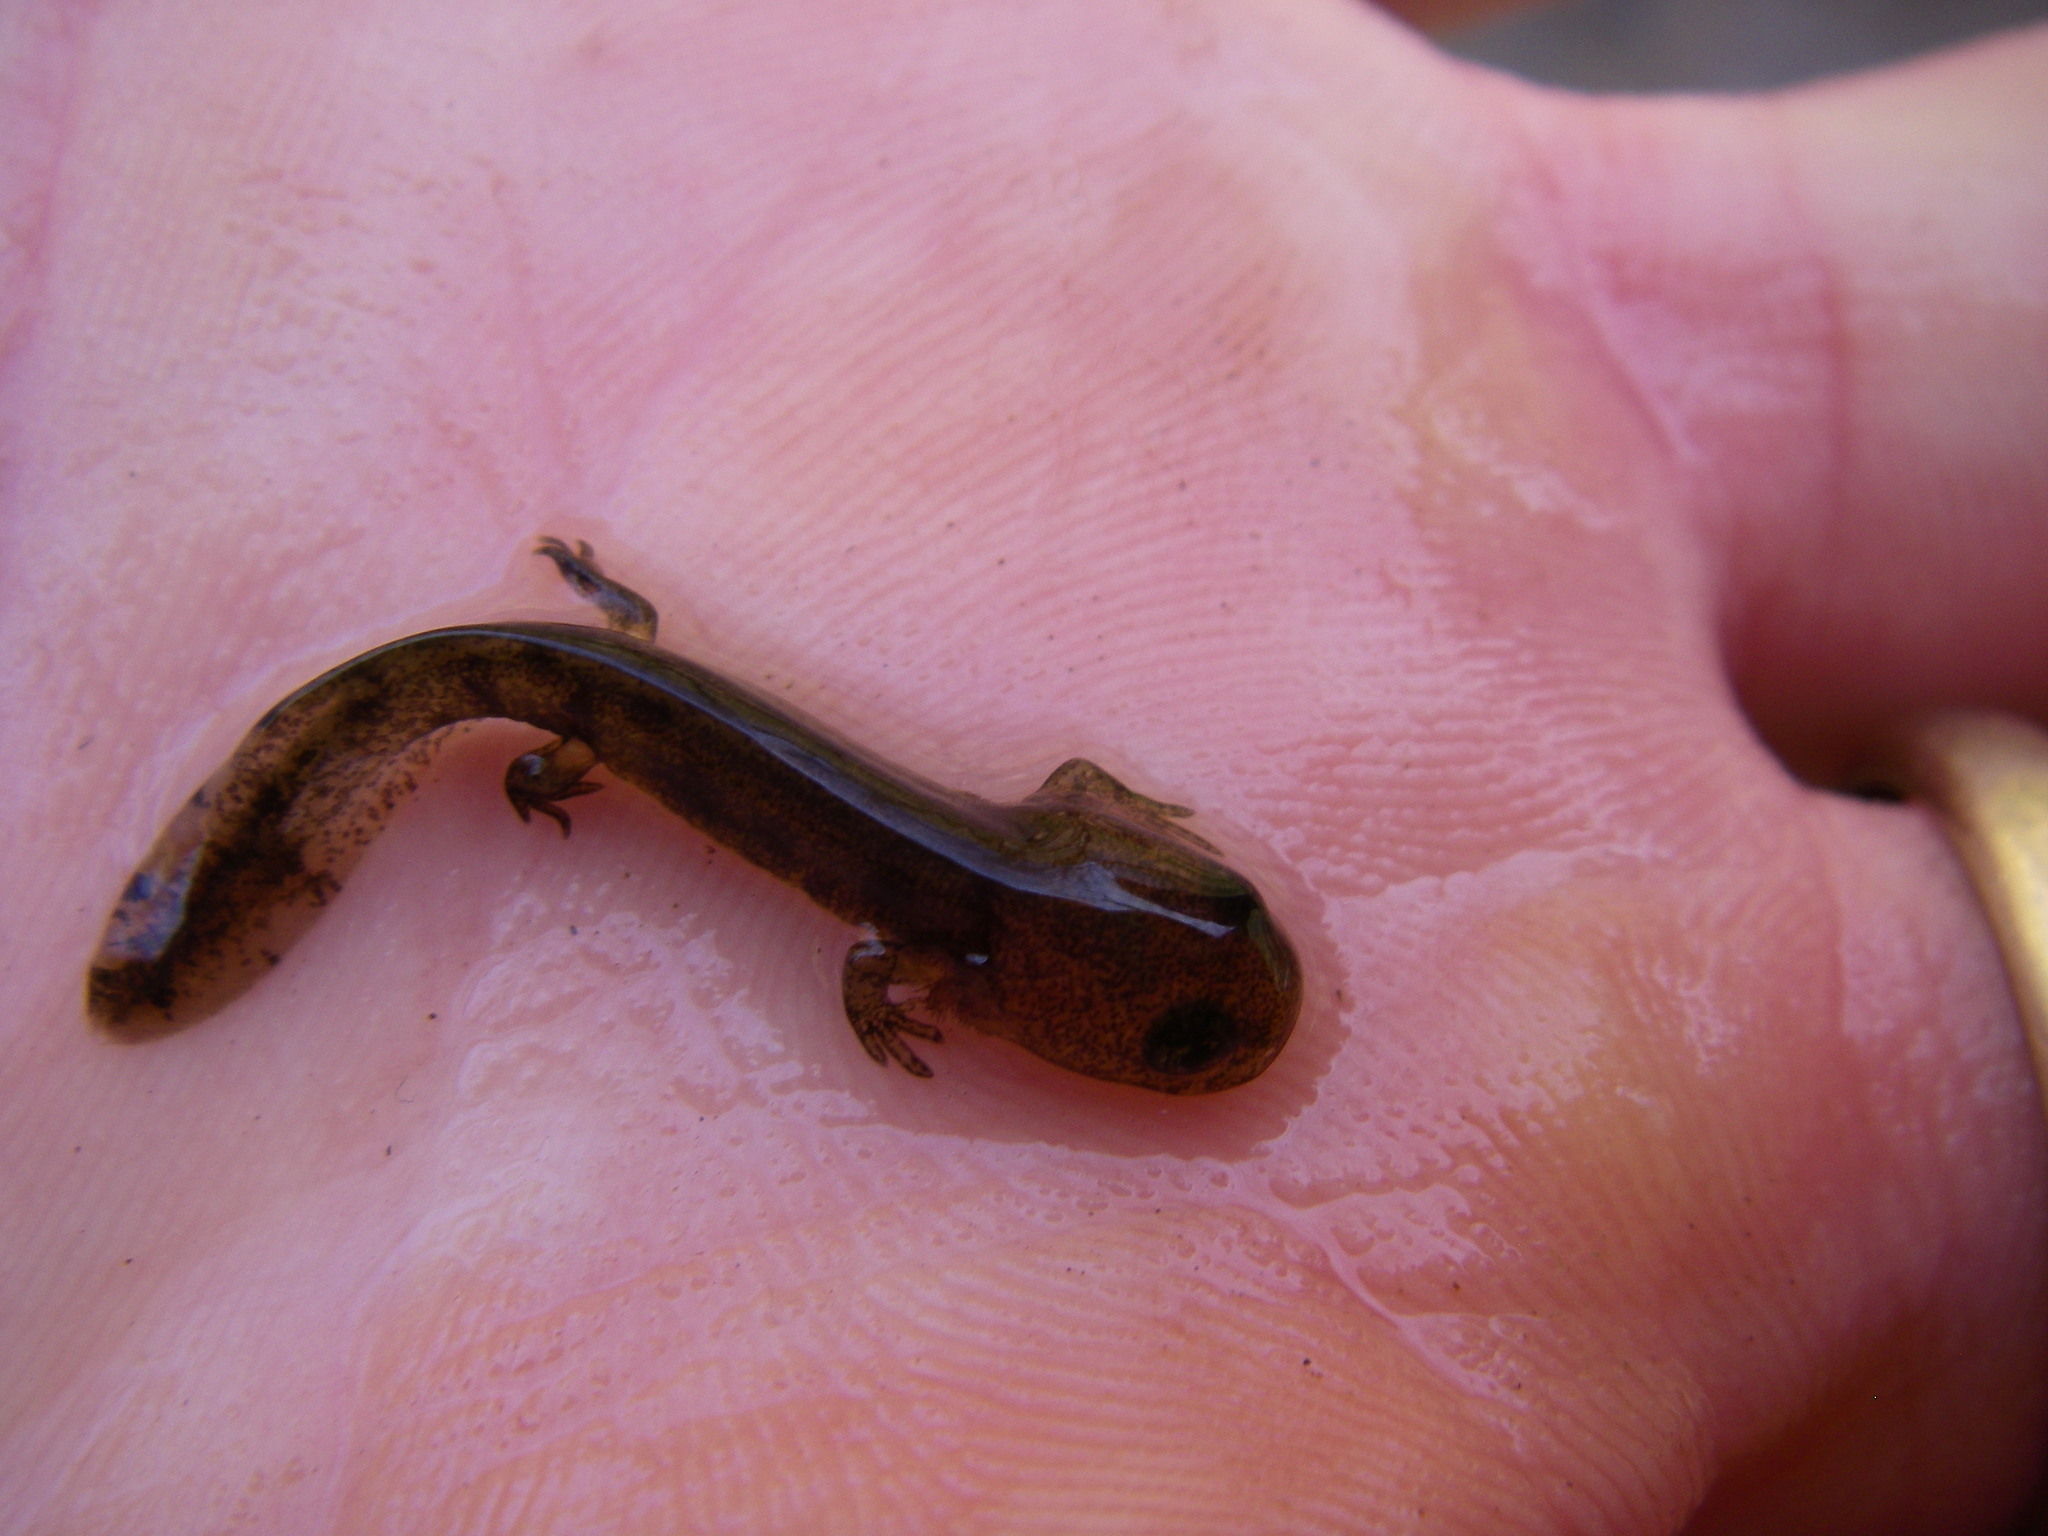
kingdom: Animalia
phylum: Chordata
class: Amphibia
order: Caudata
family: Salamandridae
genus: Salamandra
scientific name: Salamandra salamandra
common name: Fire salamander
